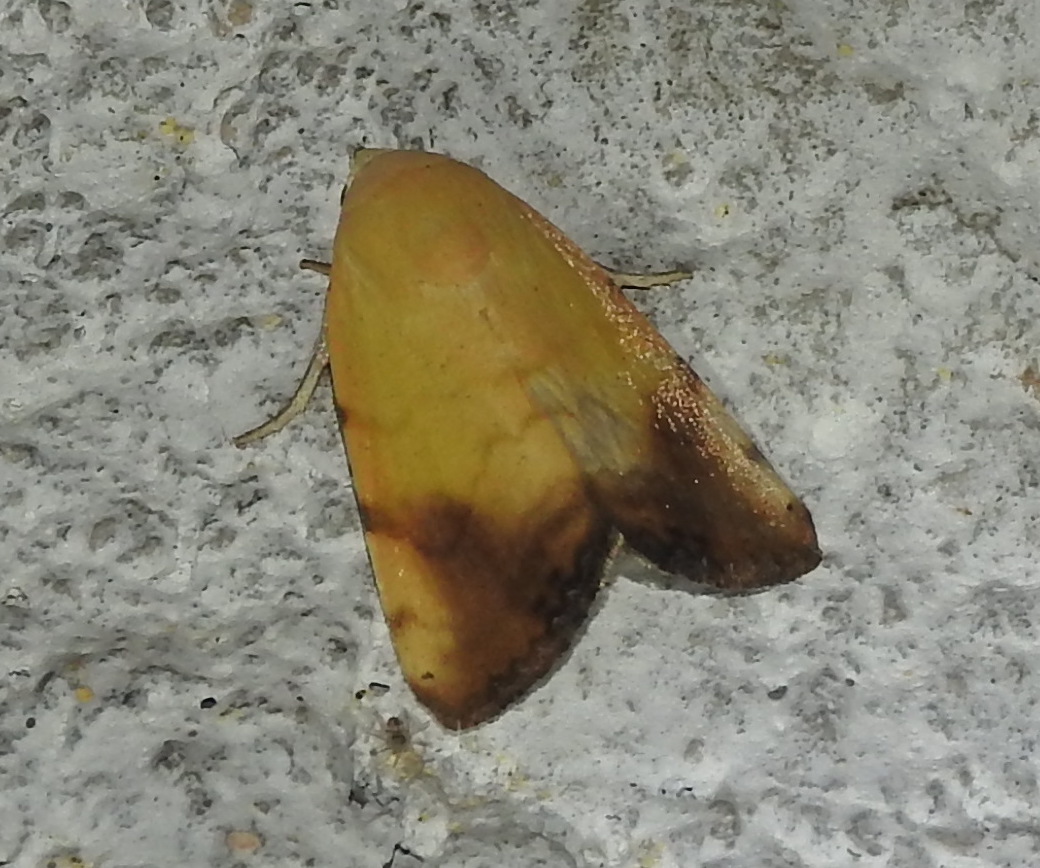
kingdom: Animalia
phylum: Arthropoda
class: Insecta
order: Lepidoptera
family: Nolidae
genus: Xanthodes
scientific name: Xanthodes albago
